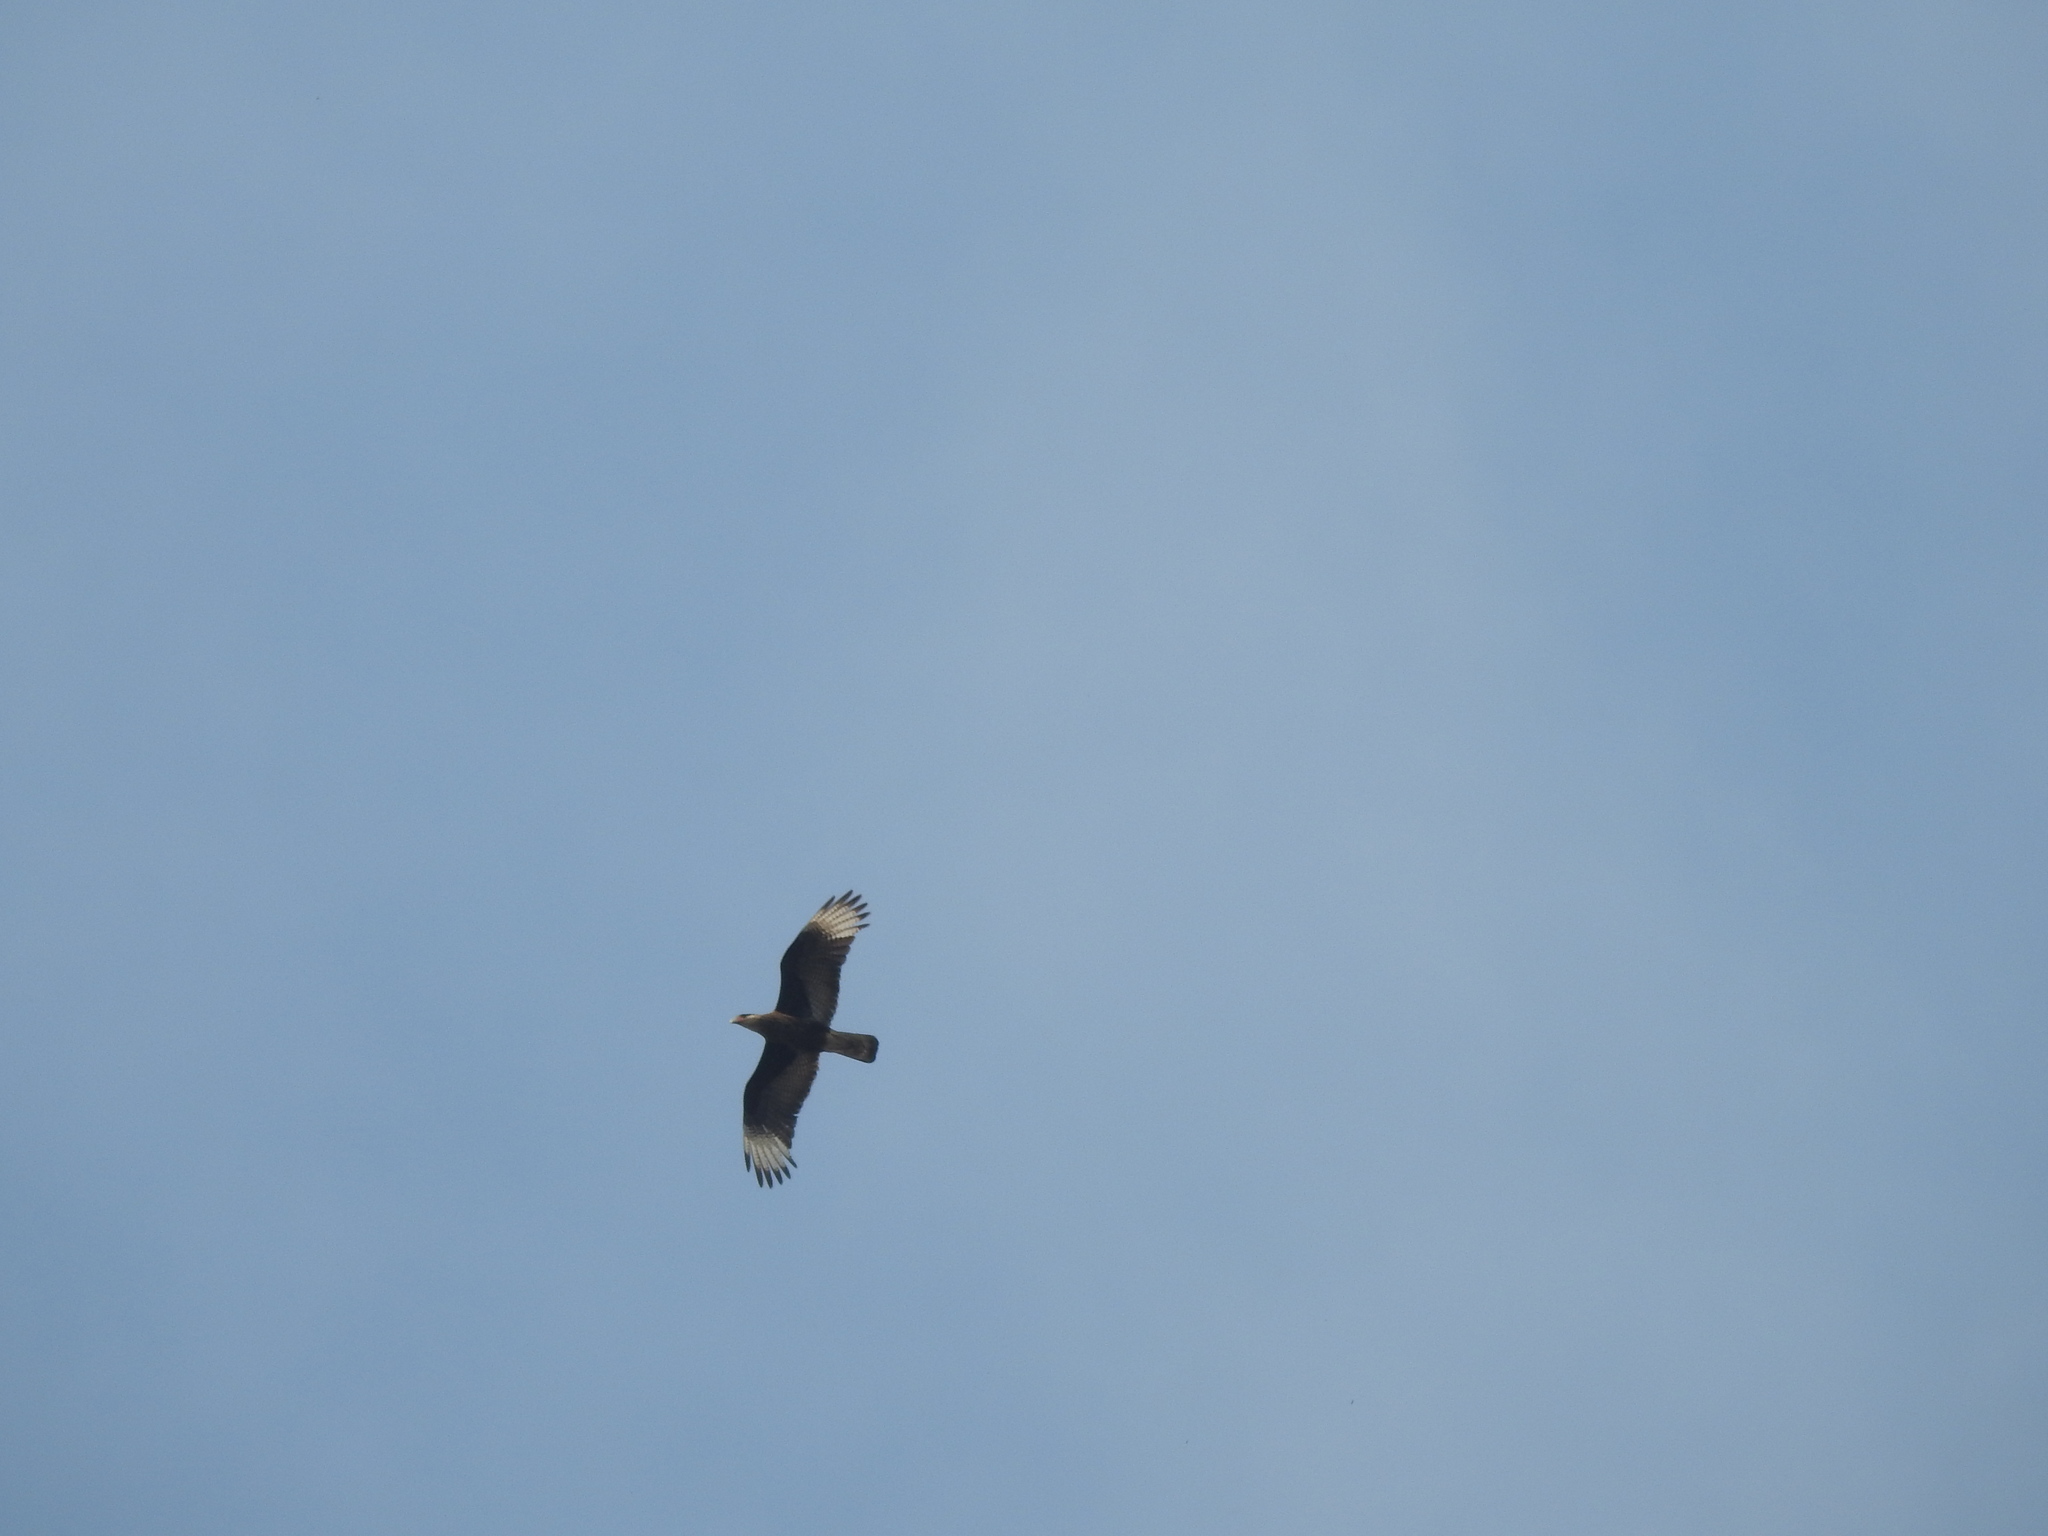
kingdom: Animalia
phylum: Chordata
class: Aves
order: Falconiformes
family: Falconidae
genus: Caracara
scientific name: Caracara plancus
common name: Southern caracara
